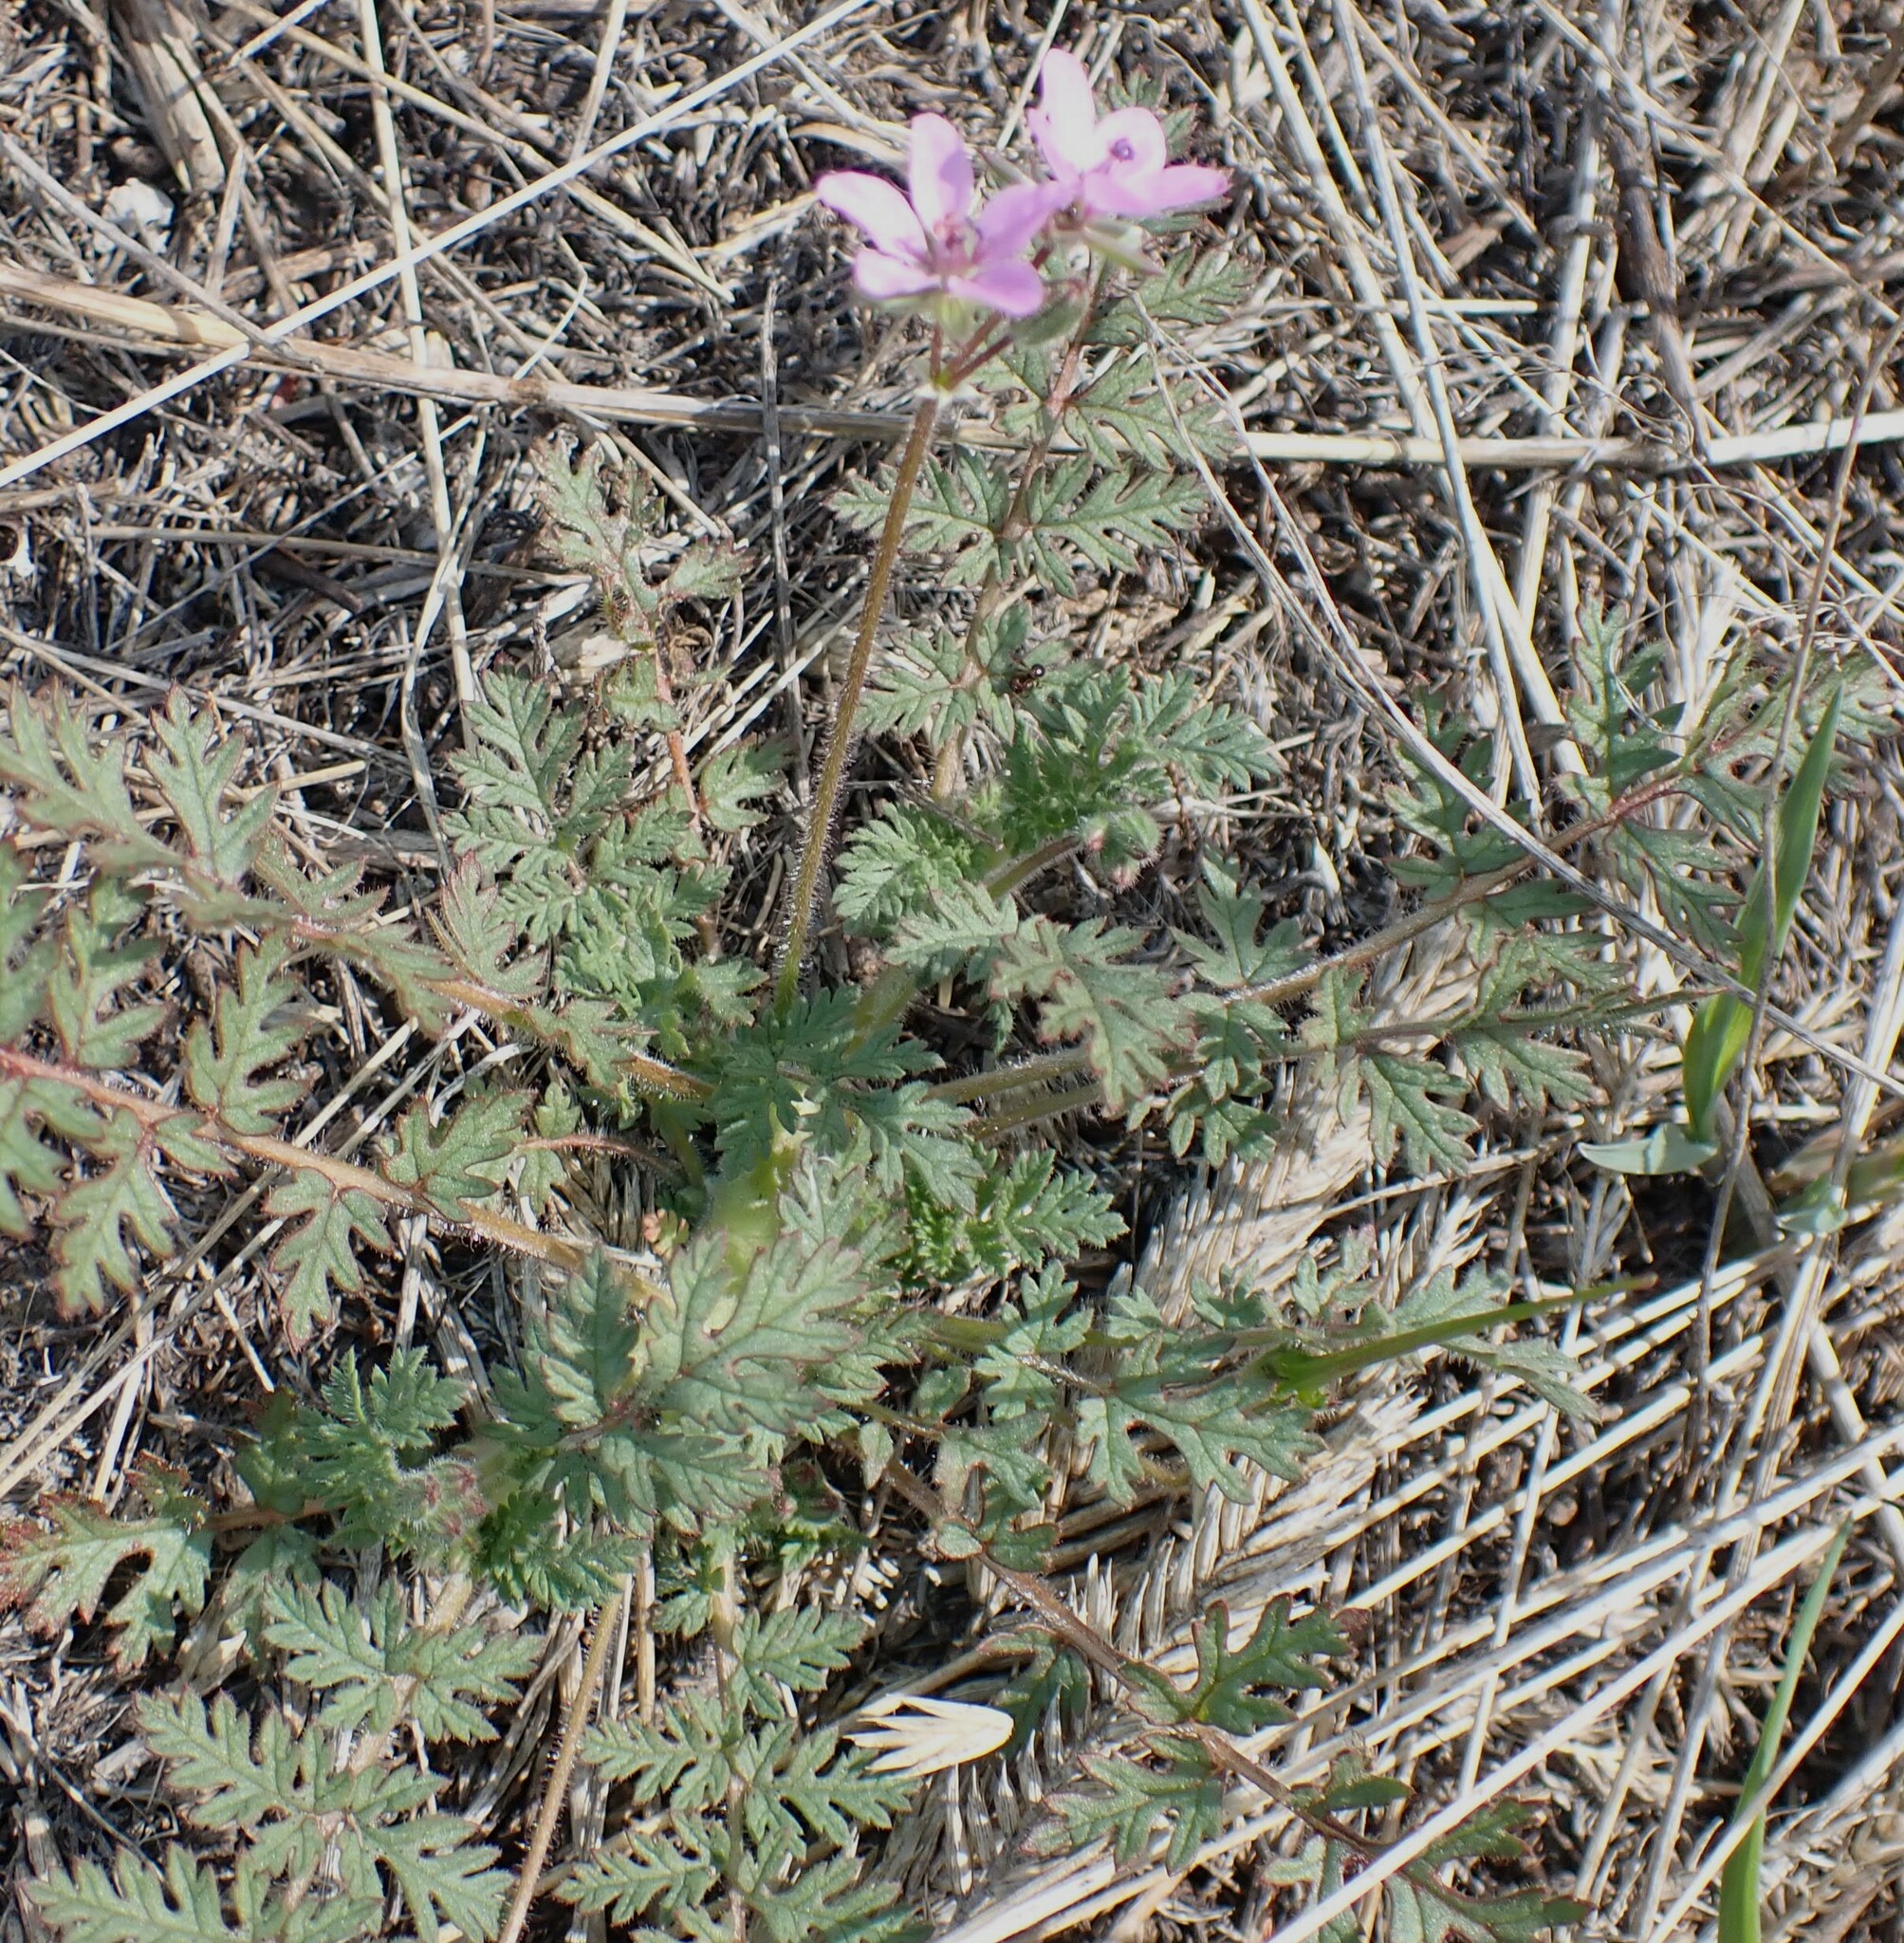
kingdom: Plantae
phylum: Tracheophyta
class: Magnoliopsida
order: Geraniales
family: Geraniaceae
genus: Erodium
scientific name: Erodium cicutarium
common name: Common stork's-bill
